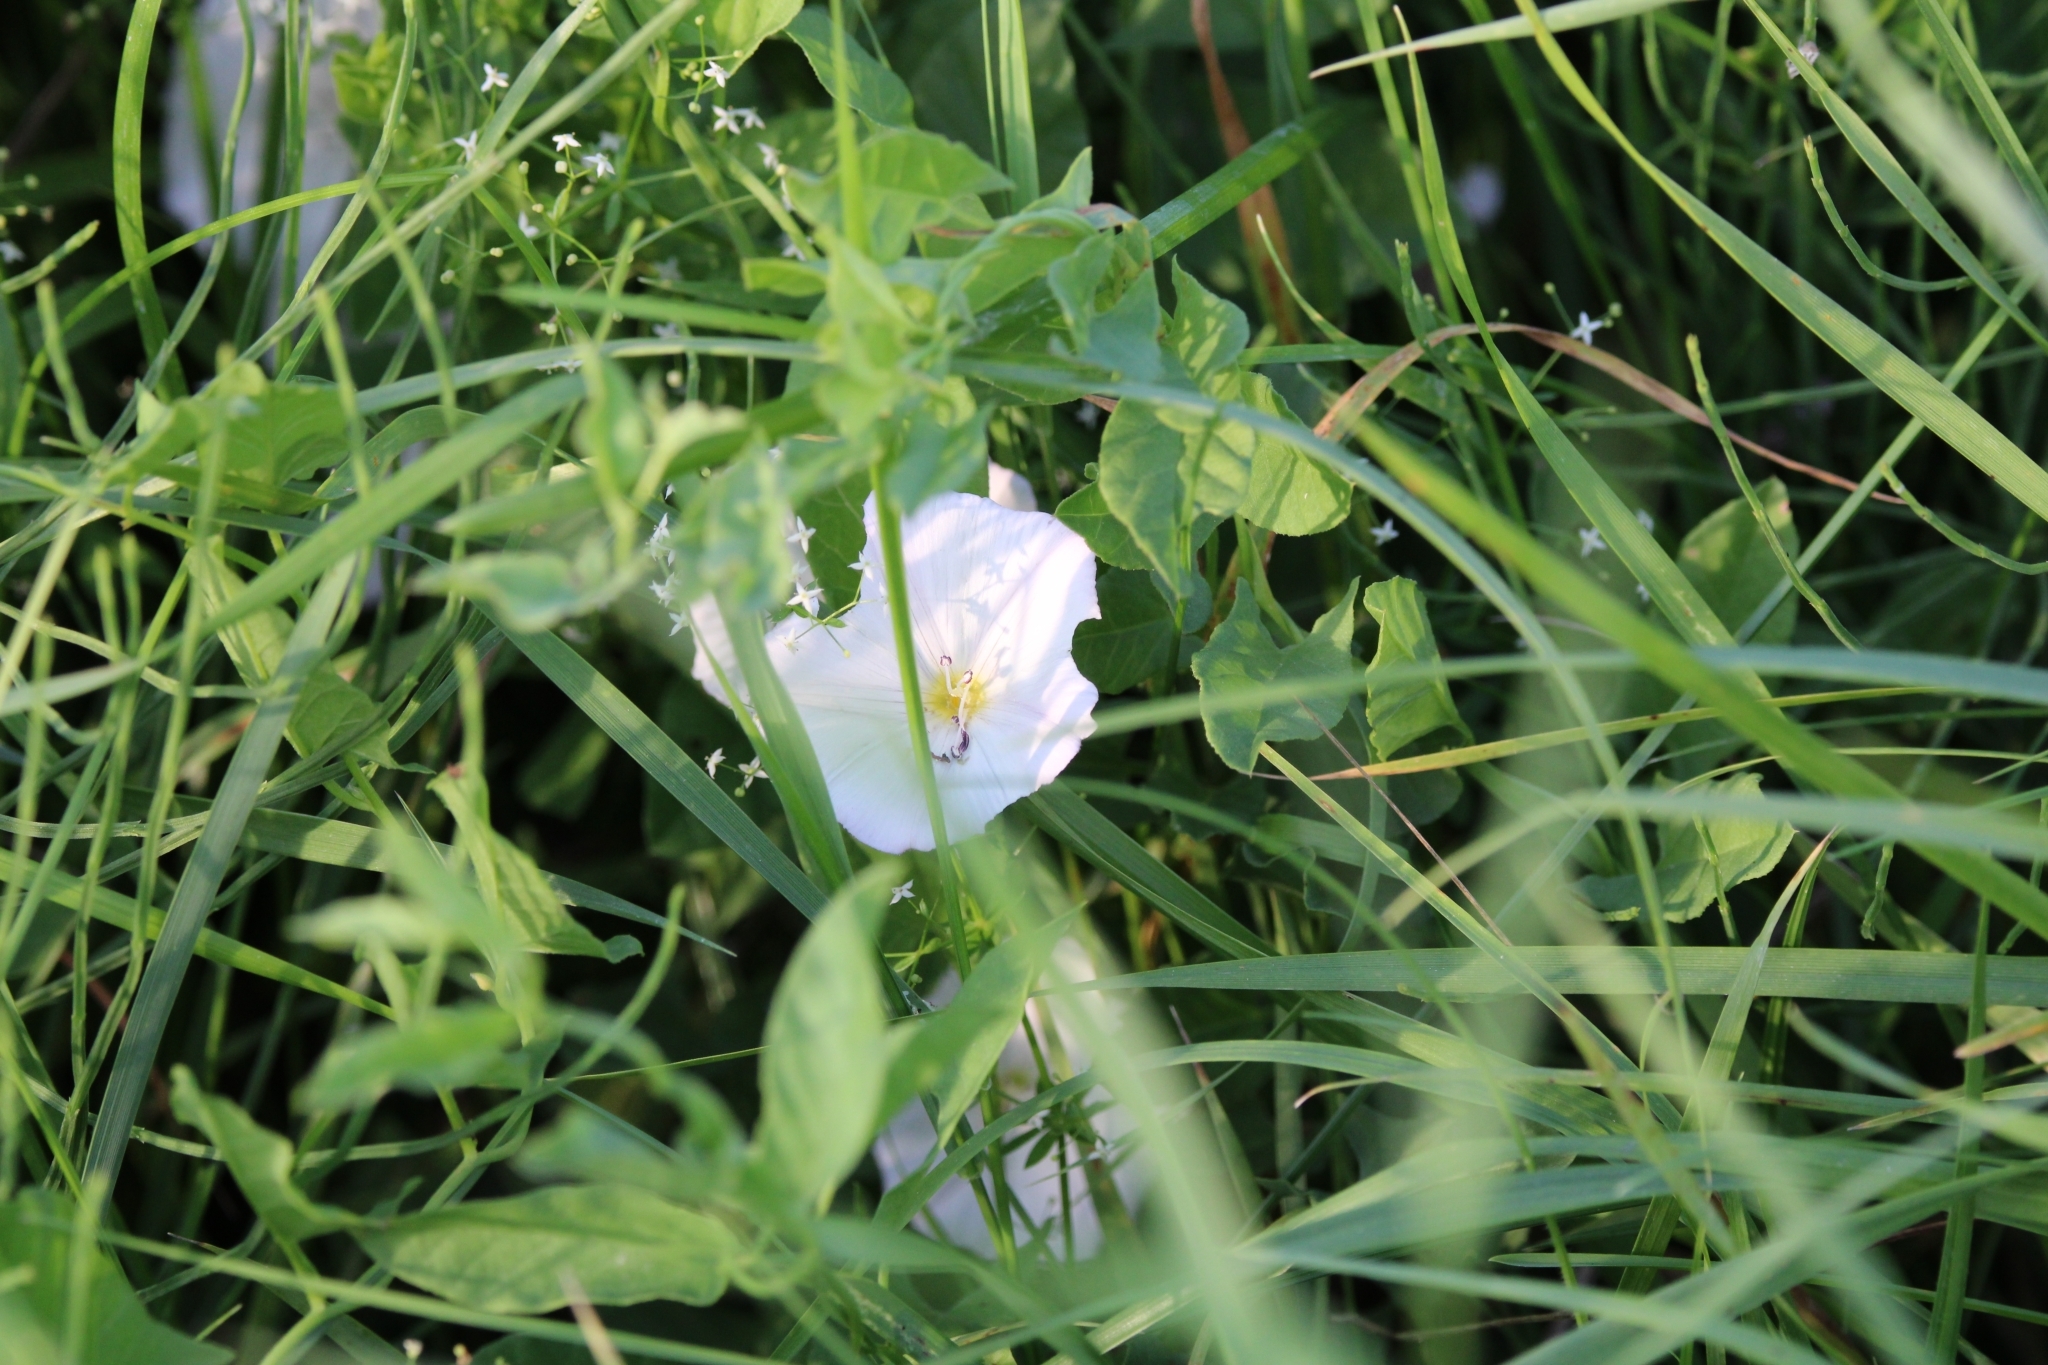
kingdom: Plantae
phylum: Tracheophyta
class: Magnoliopsida
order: Solanales
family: Convolvulaceae
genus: Calystegia
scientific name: Calystegia sepium
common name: Hedge bindweed
